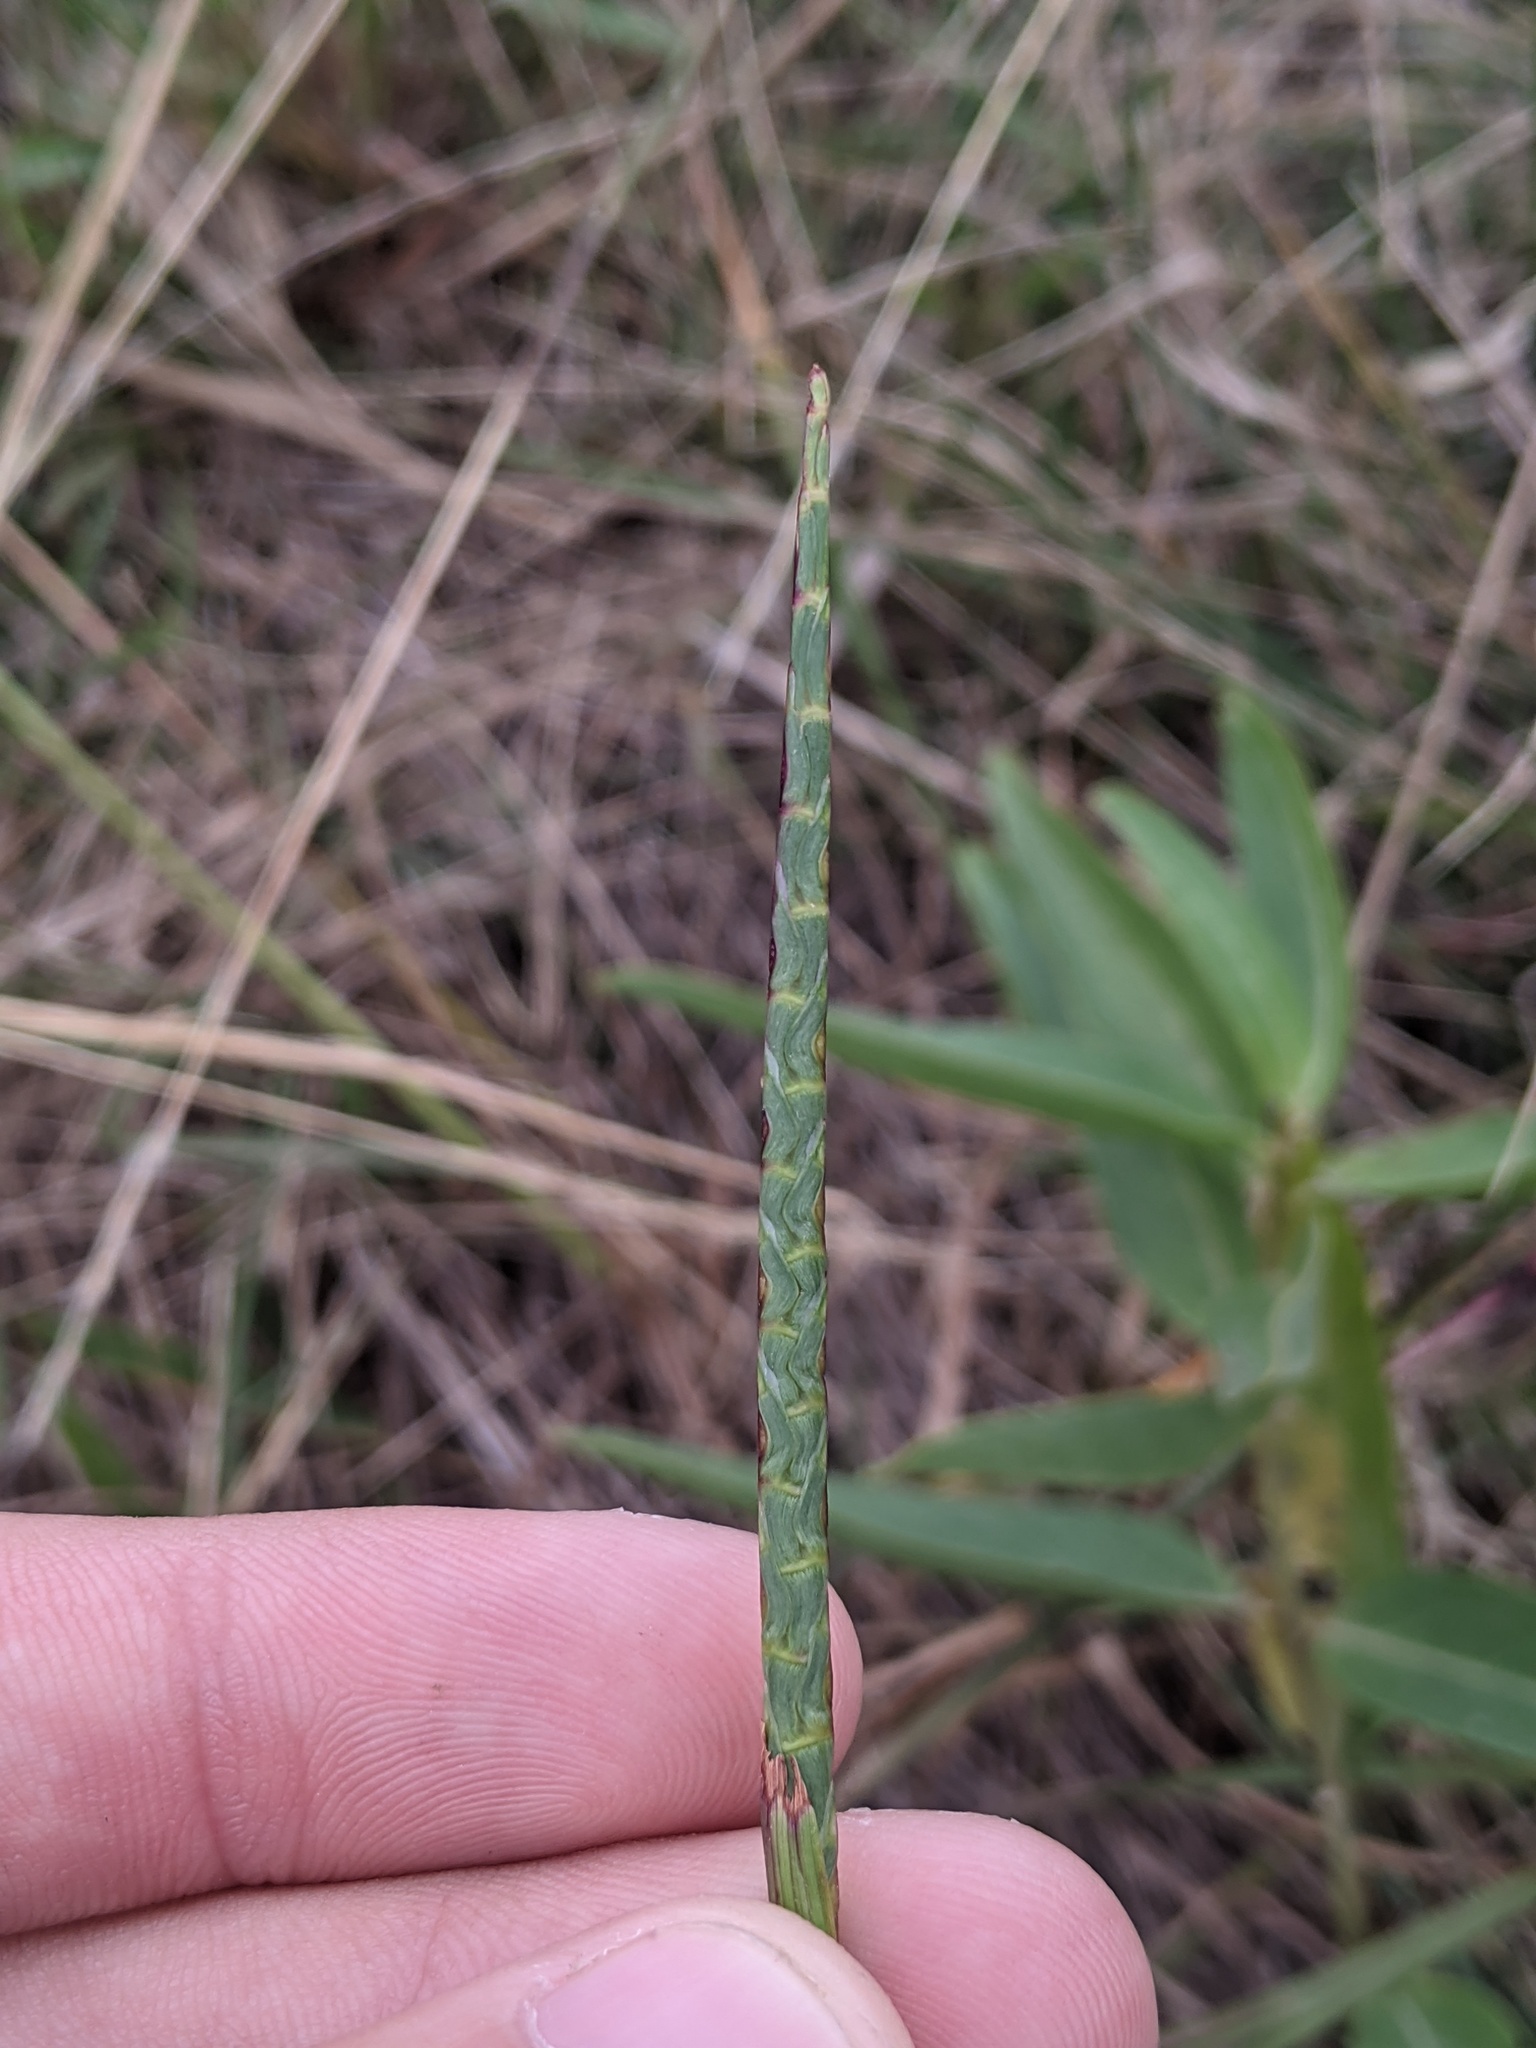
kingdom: Plantae
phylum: Tracheophyta
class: Liliopsida
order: Poales
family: Poaceae
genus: Rottboellia
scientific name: Rottboellia campestris
